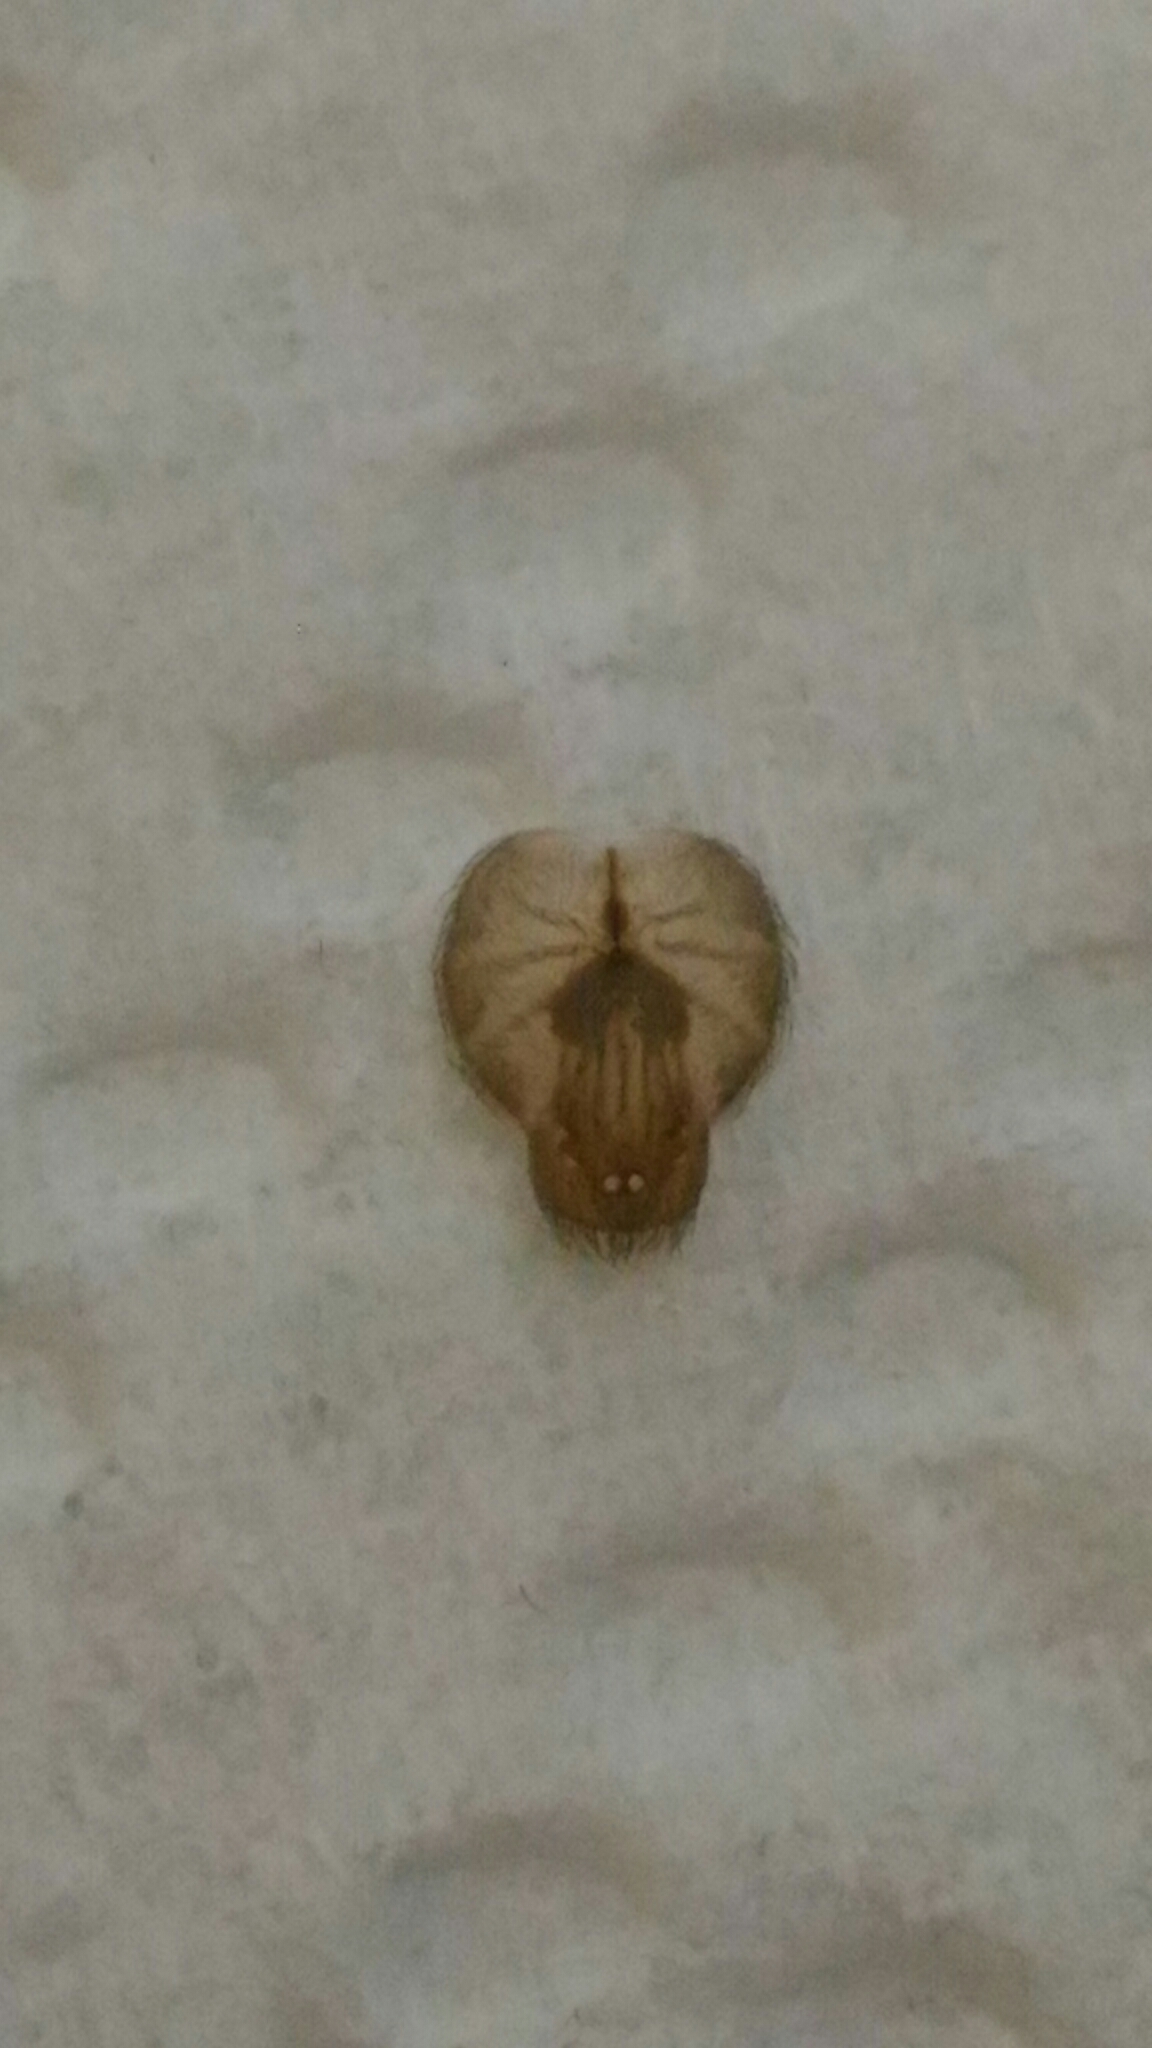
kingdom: Animalia
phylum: Arthropoda
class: Arachnida
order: Araneae
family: Sicariidae
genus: Loxosceles
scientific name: Loxosceles reclusa
